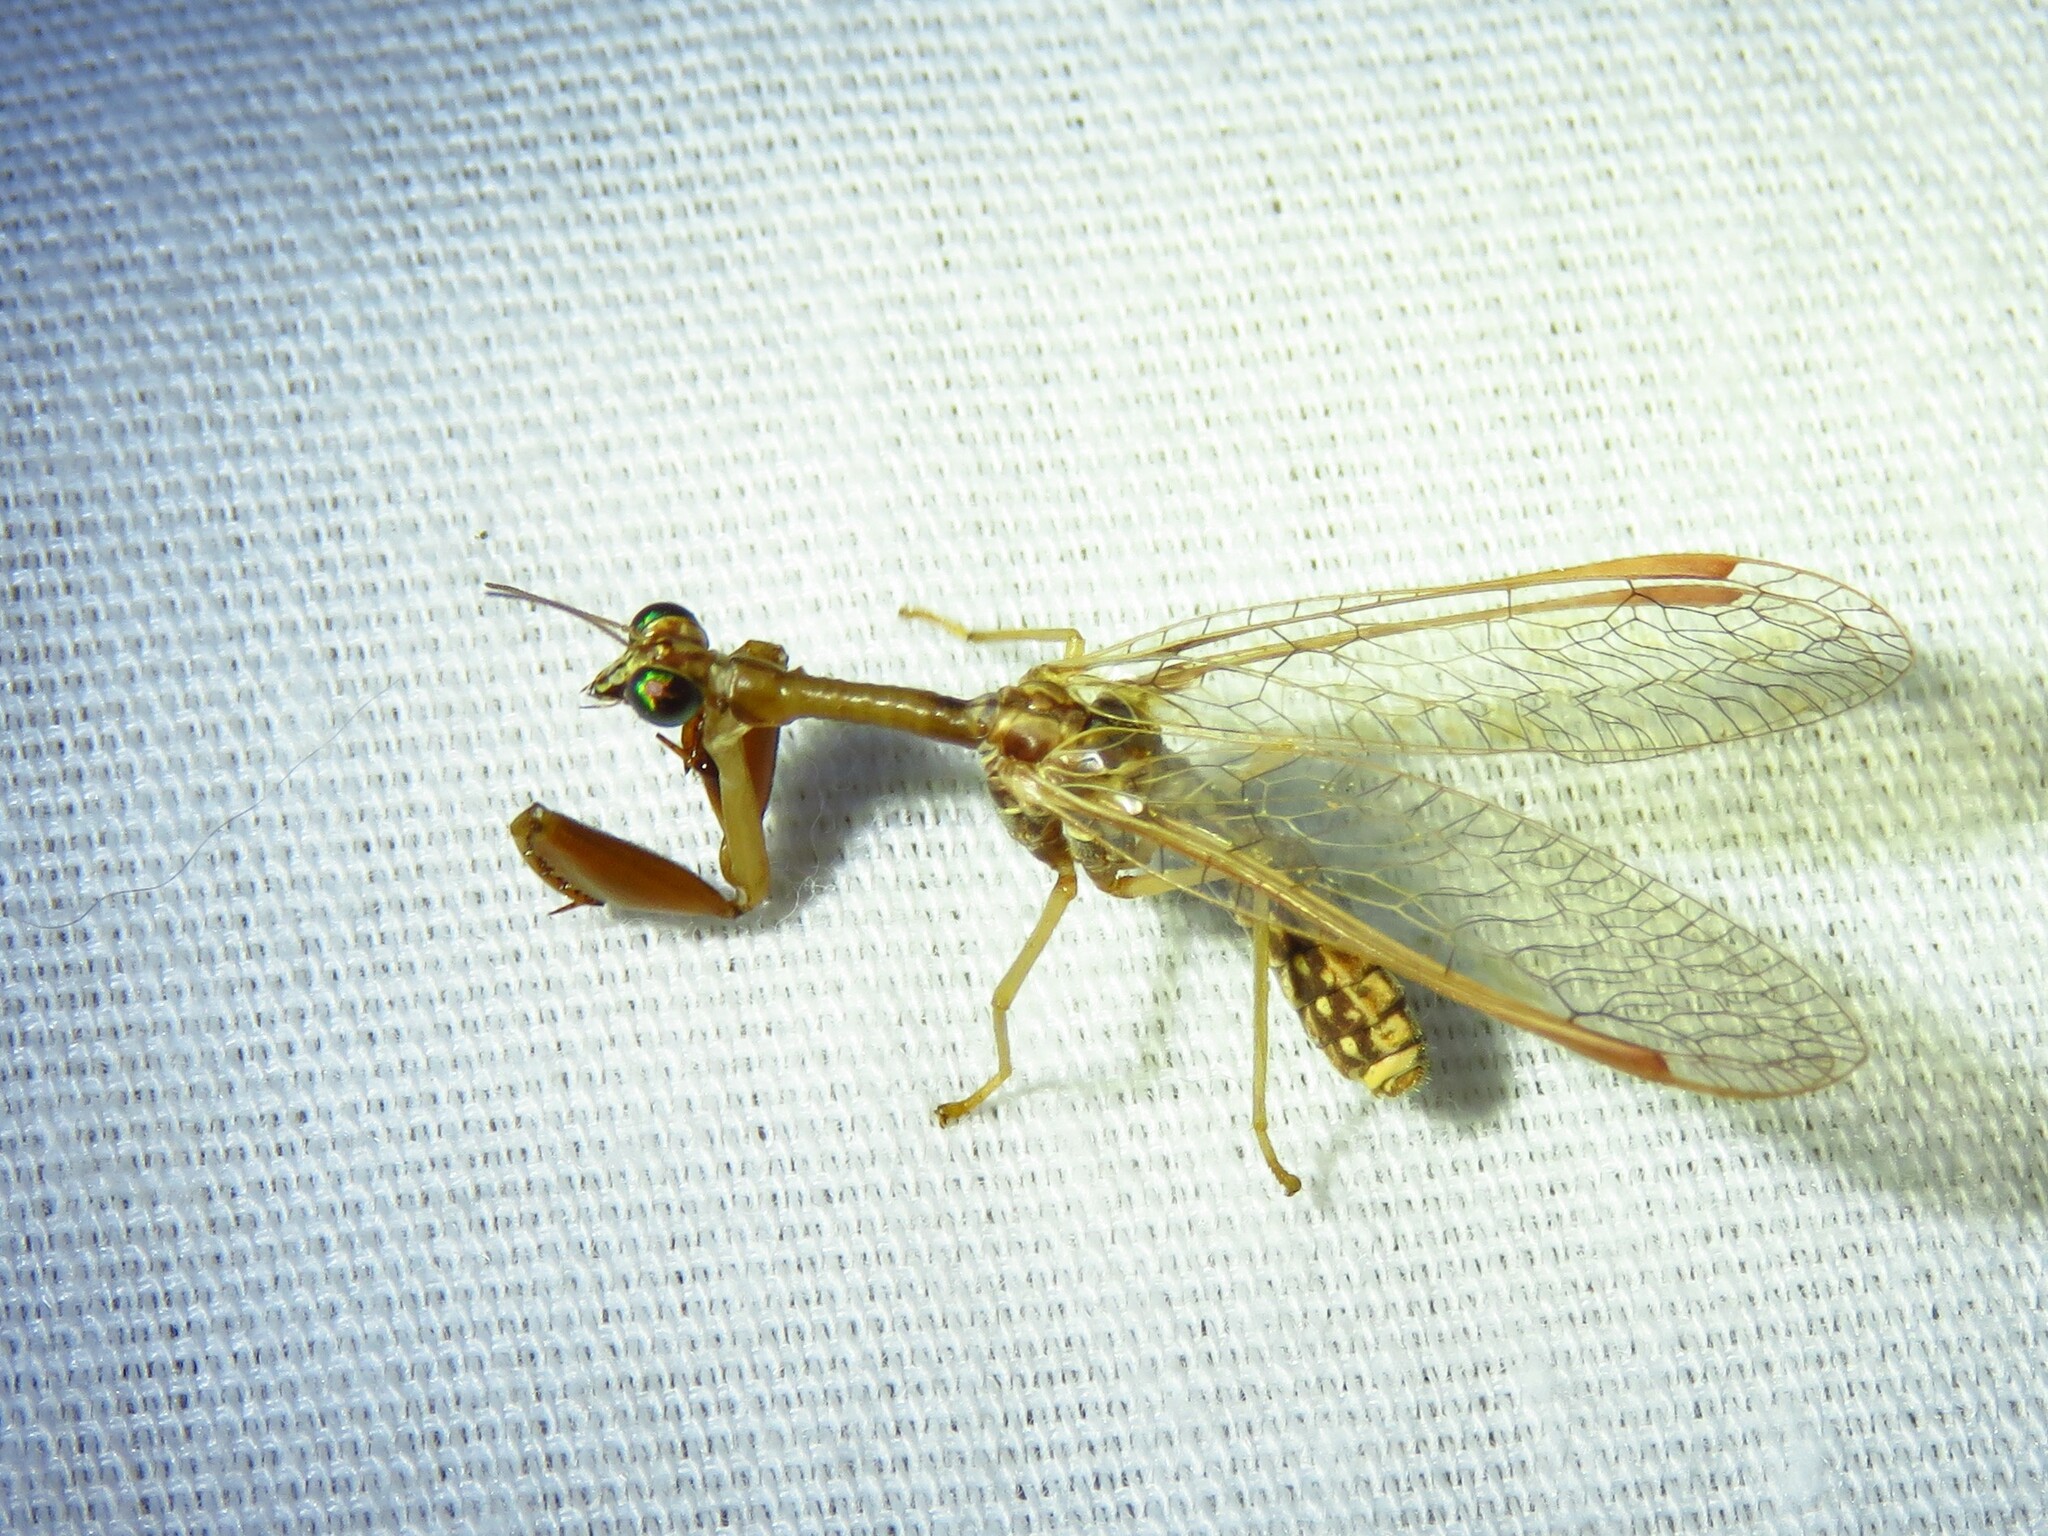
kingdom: Animalia
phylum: Arthropoda
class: Insecta
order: Neuroptera
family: Mantispidae
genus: Dicromantispa
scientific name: Dicromantispa sayi
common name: Say's mantidfly
